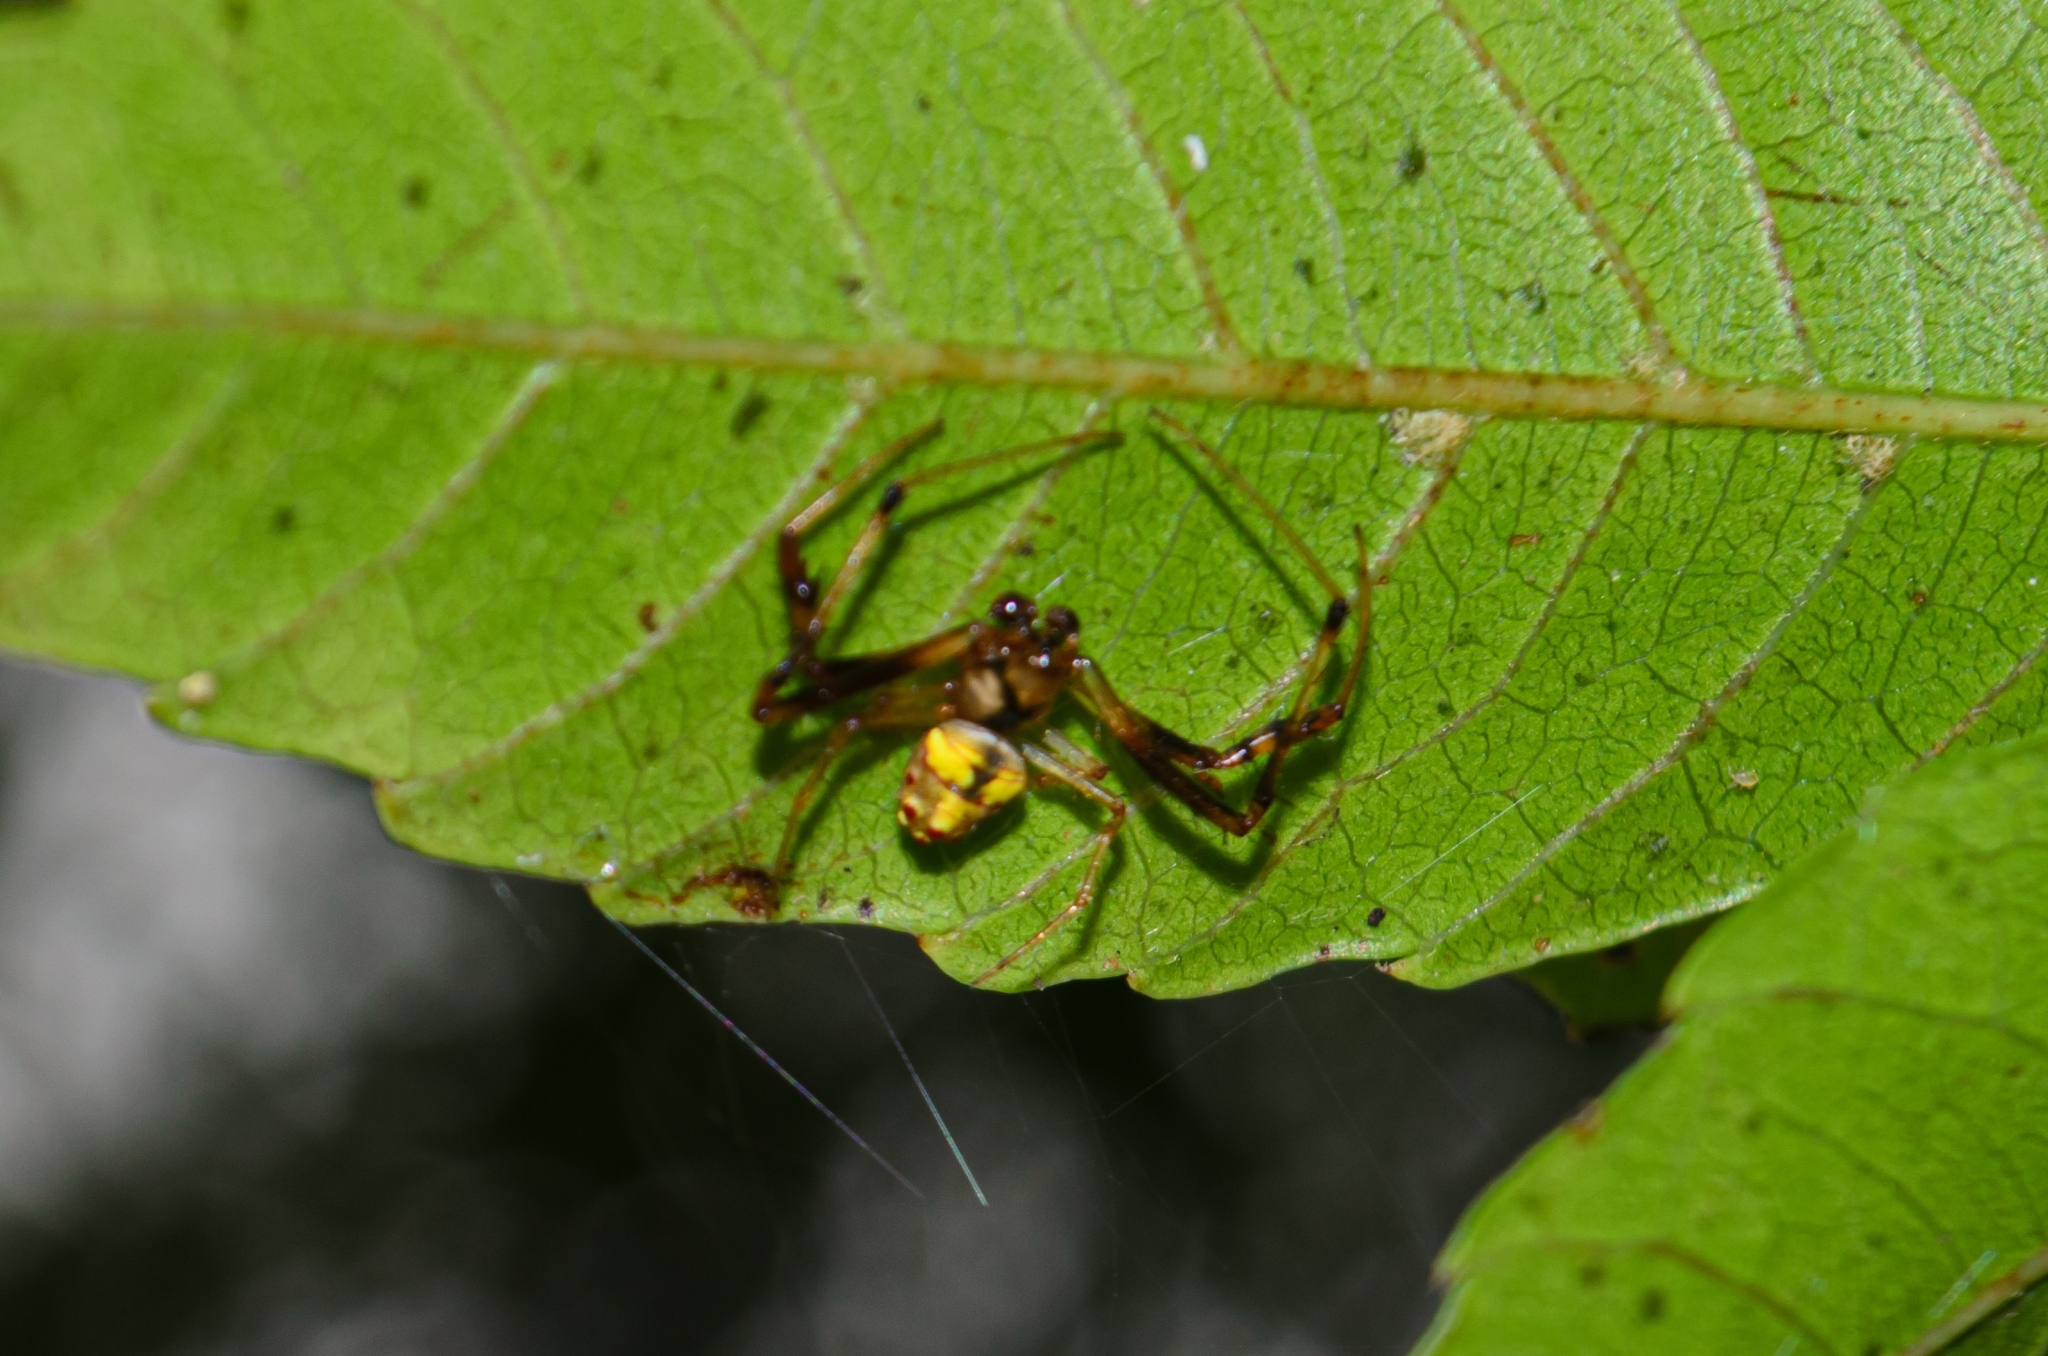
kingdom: Animalia
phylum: Arthropoda
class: Arachnida
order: Araneae
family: Araneidae
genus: Verrucosa
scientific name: Verrucosa undecimvariolata
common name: Orb weavers
